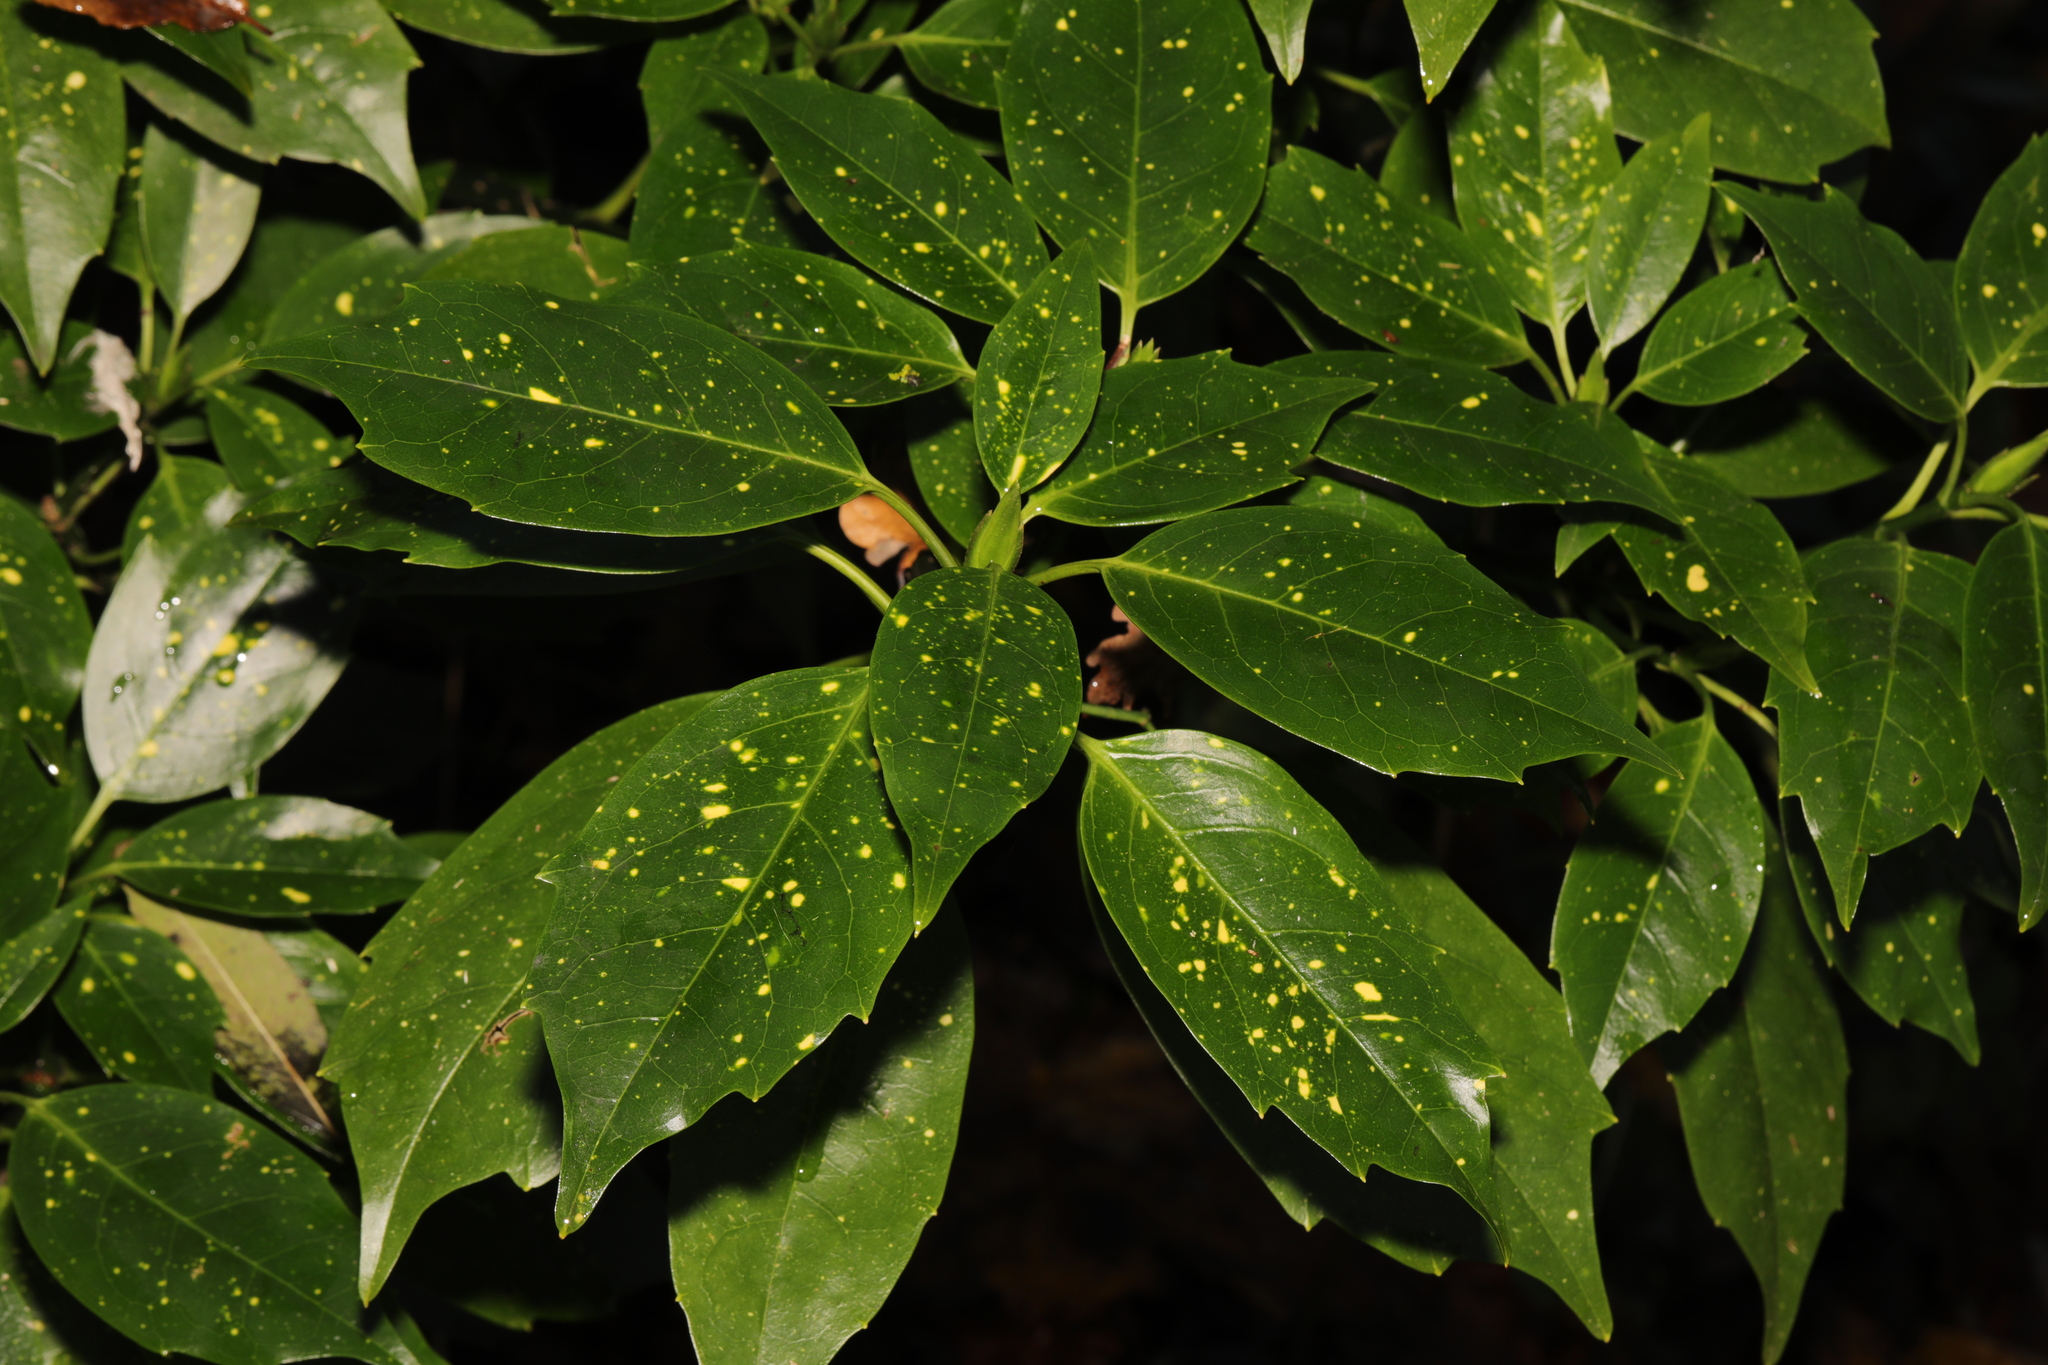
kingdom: Plantae
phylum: Tracheophyta
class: Magnoliopsida
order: Garryales
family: Garryaceae
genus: Aucuba
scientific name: Aucuba japonica
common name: Spotted-laurel
